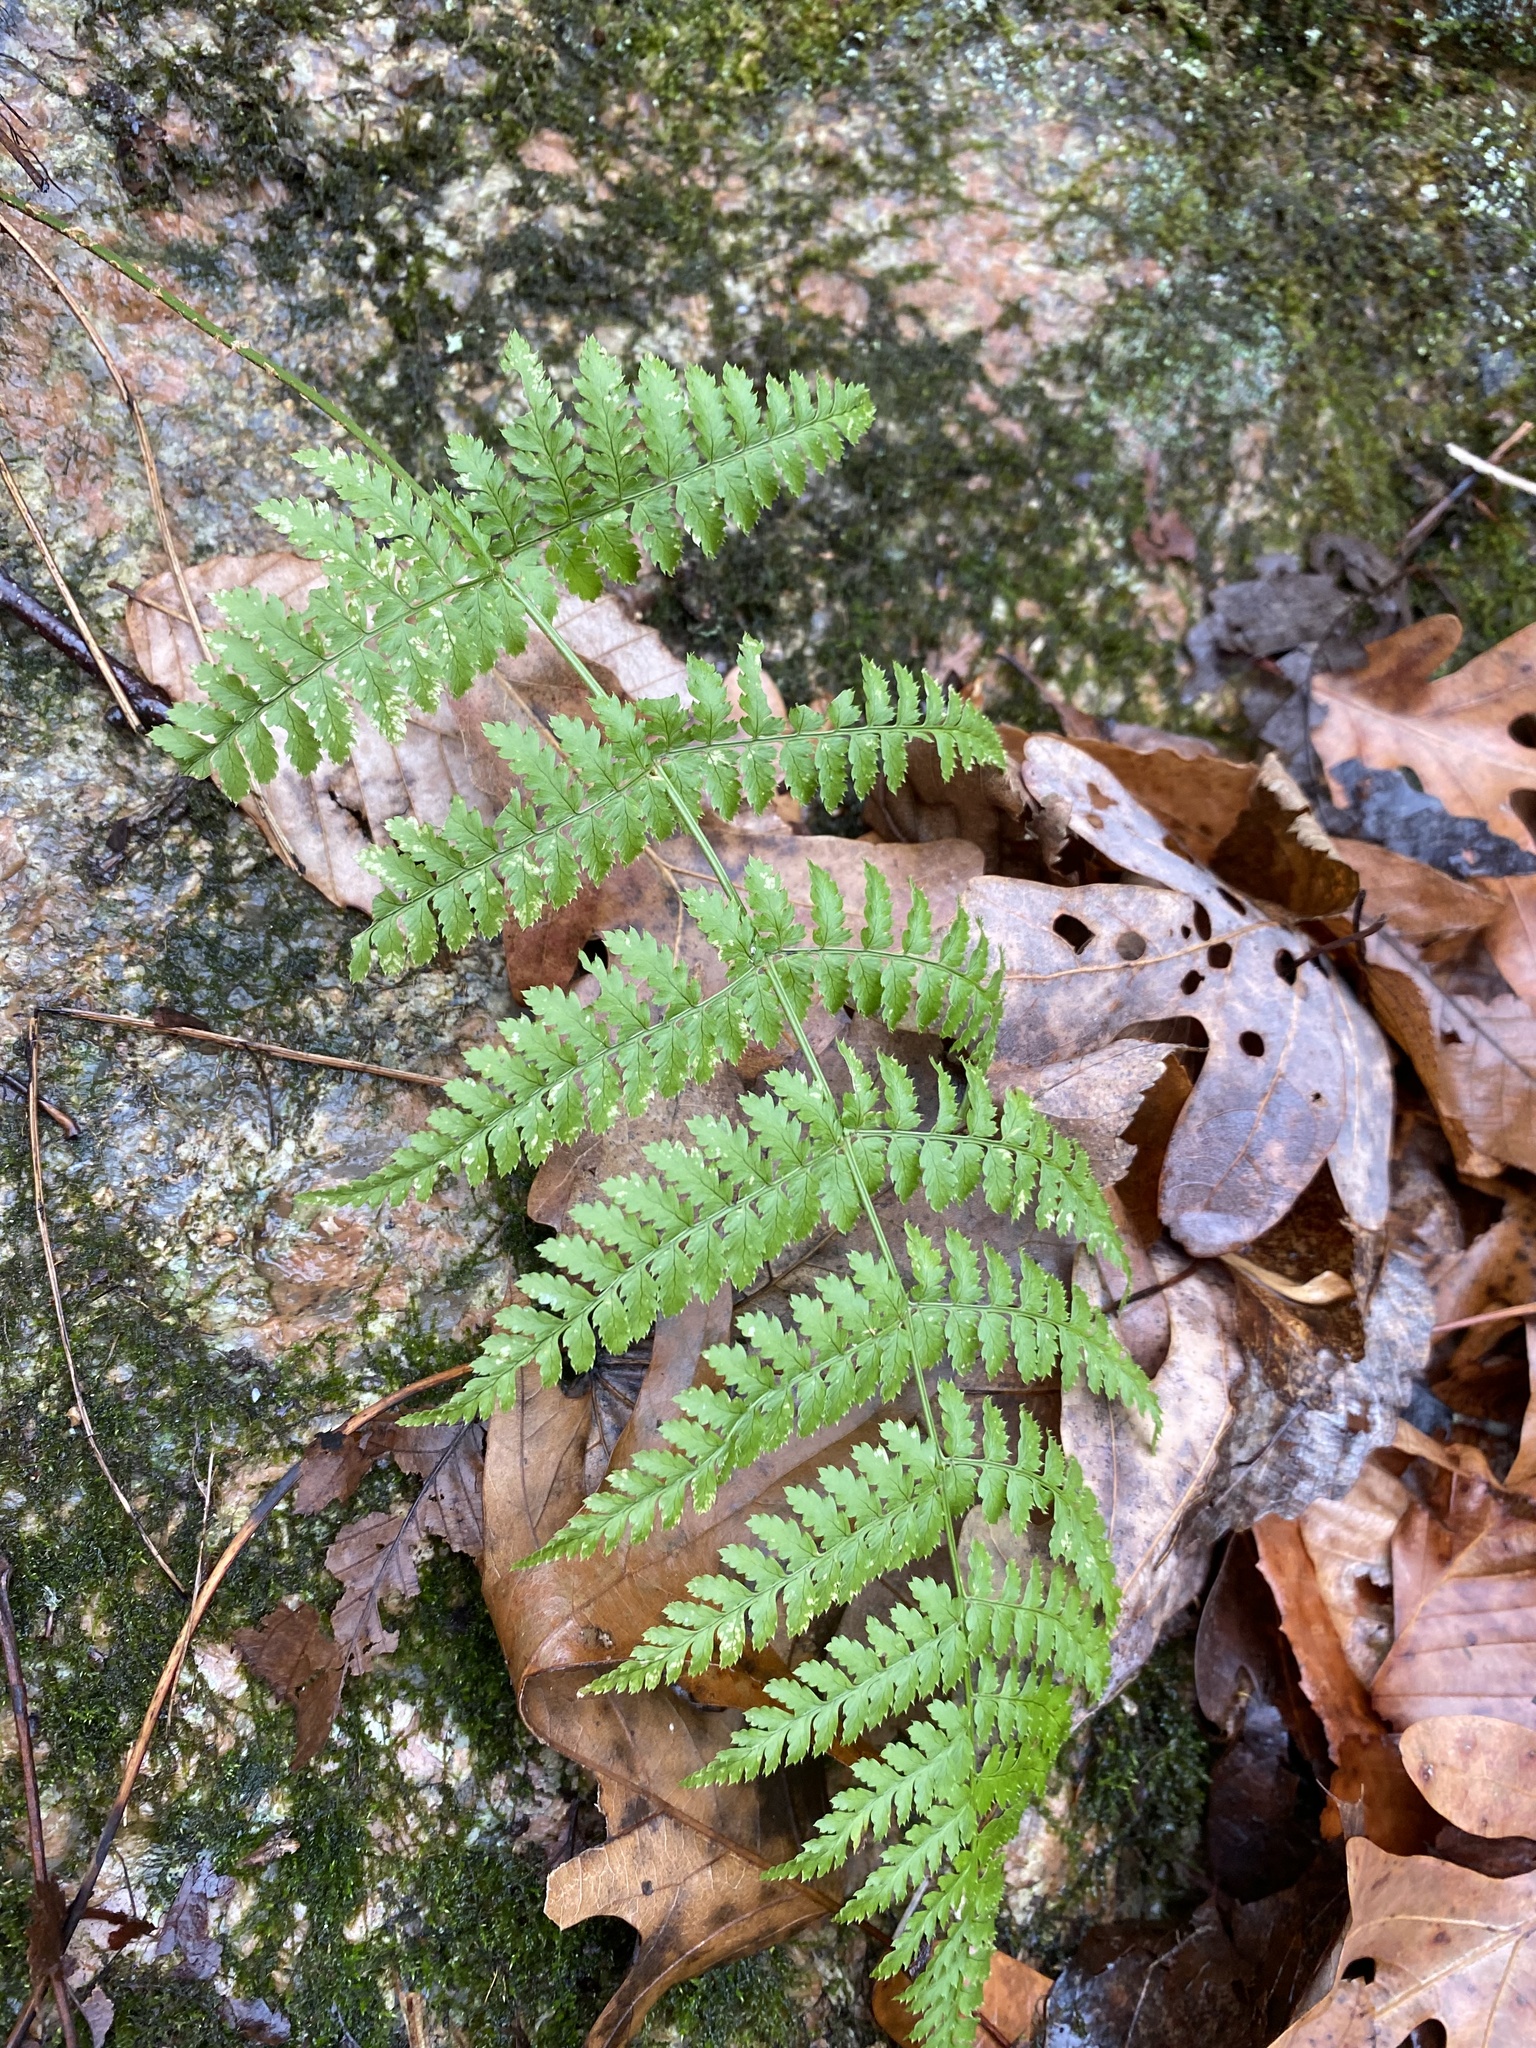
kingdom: Plantae
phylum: Tracheophyta
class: Polypodiopsida
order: Polypodiales
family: Dryopteridaceae
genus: Dryopteris
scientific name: Dryopteris intermedia
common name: Evergreen wood fern
